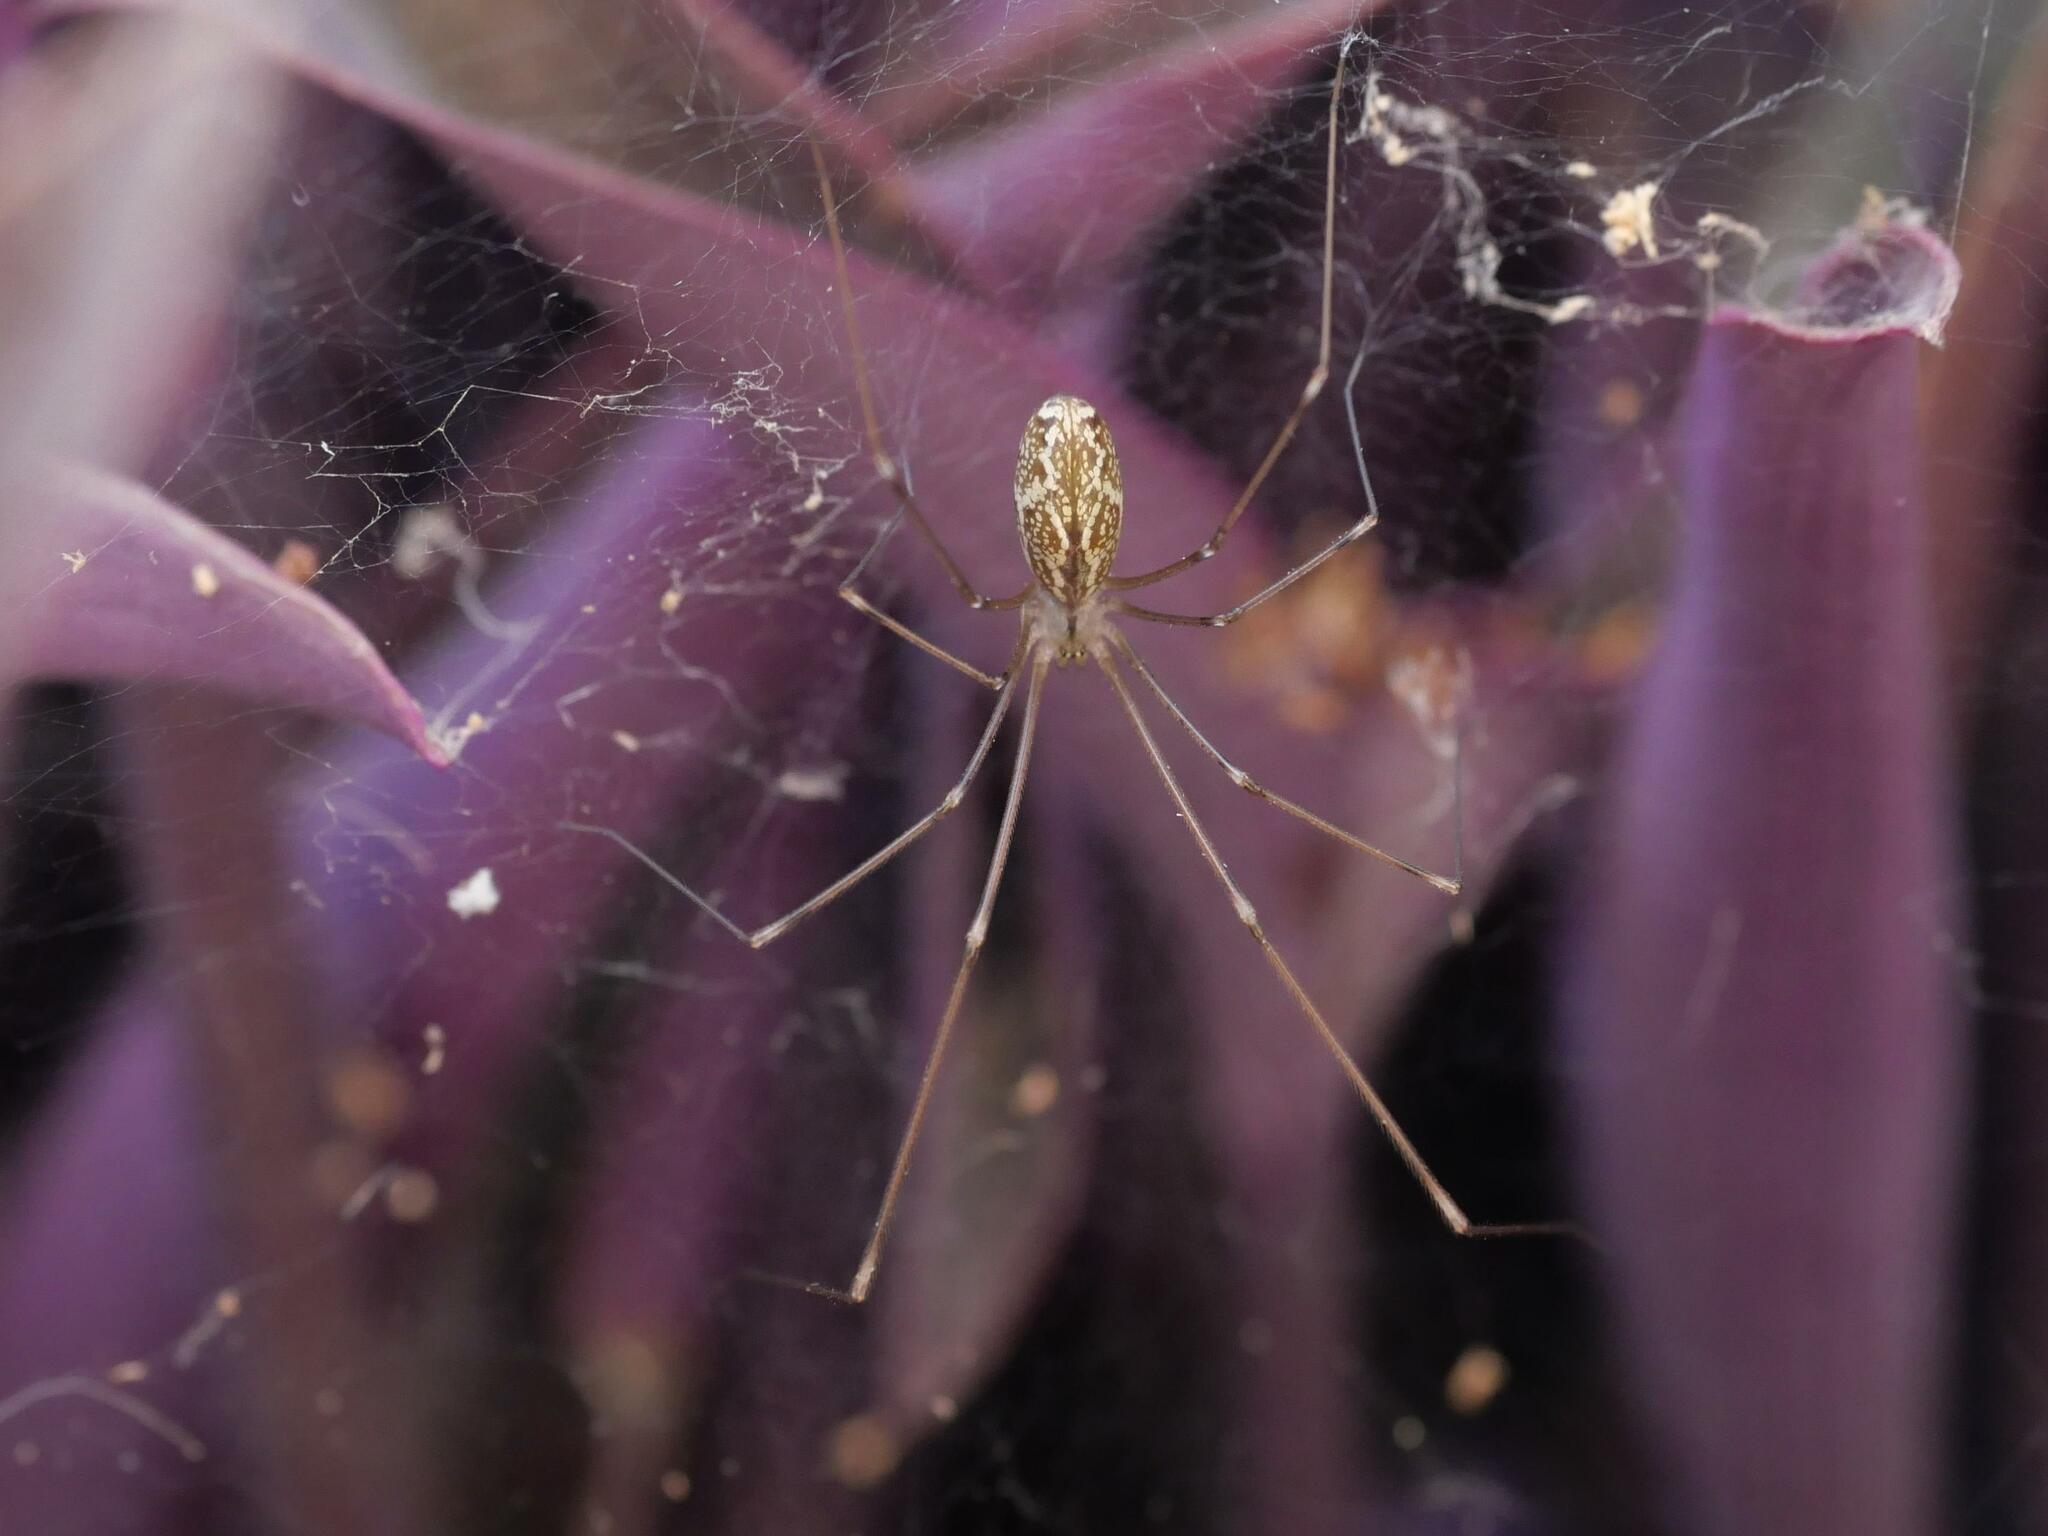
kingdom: Animalia
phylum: Arthropoda
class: Arachnida
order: Araneae
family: Pholcidae
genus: Holocnemus
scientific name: Holocnemus pluchei
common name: Marbled cellar spider
